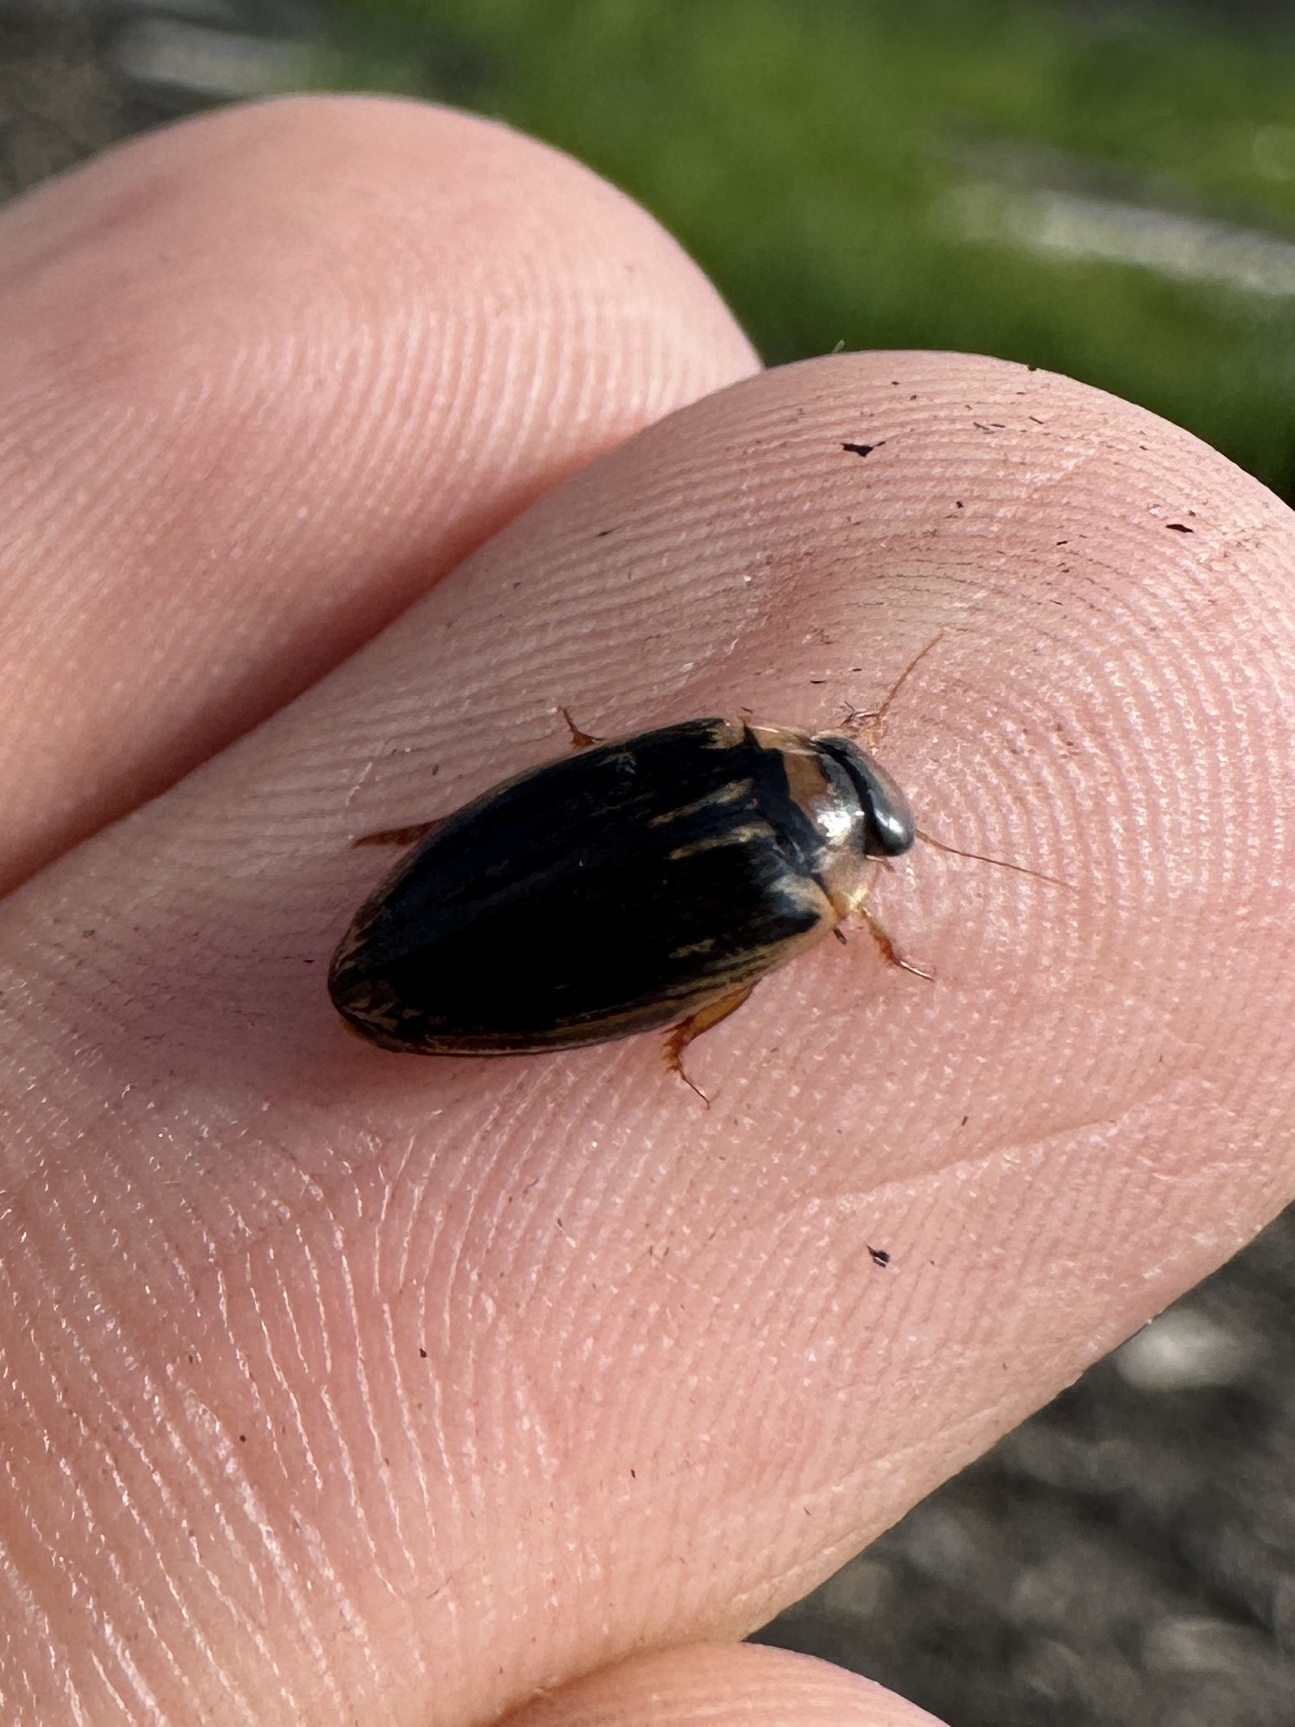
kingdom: Animalia
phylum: Arthropoda
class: Insecta
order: Coleoptera
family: Dytiscidae
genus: Coptotomus
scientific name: Coptotomus longulus
